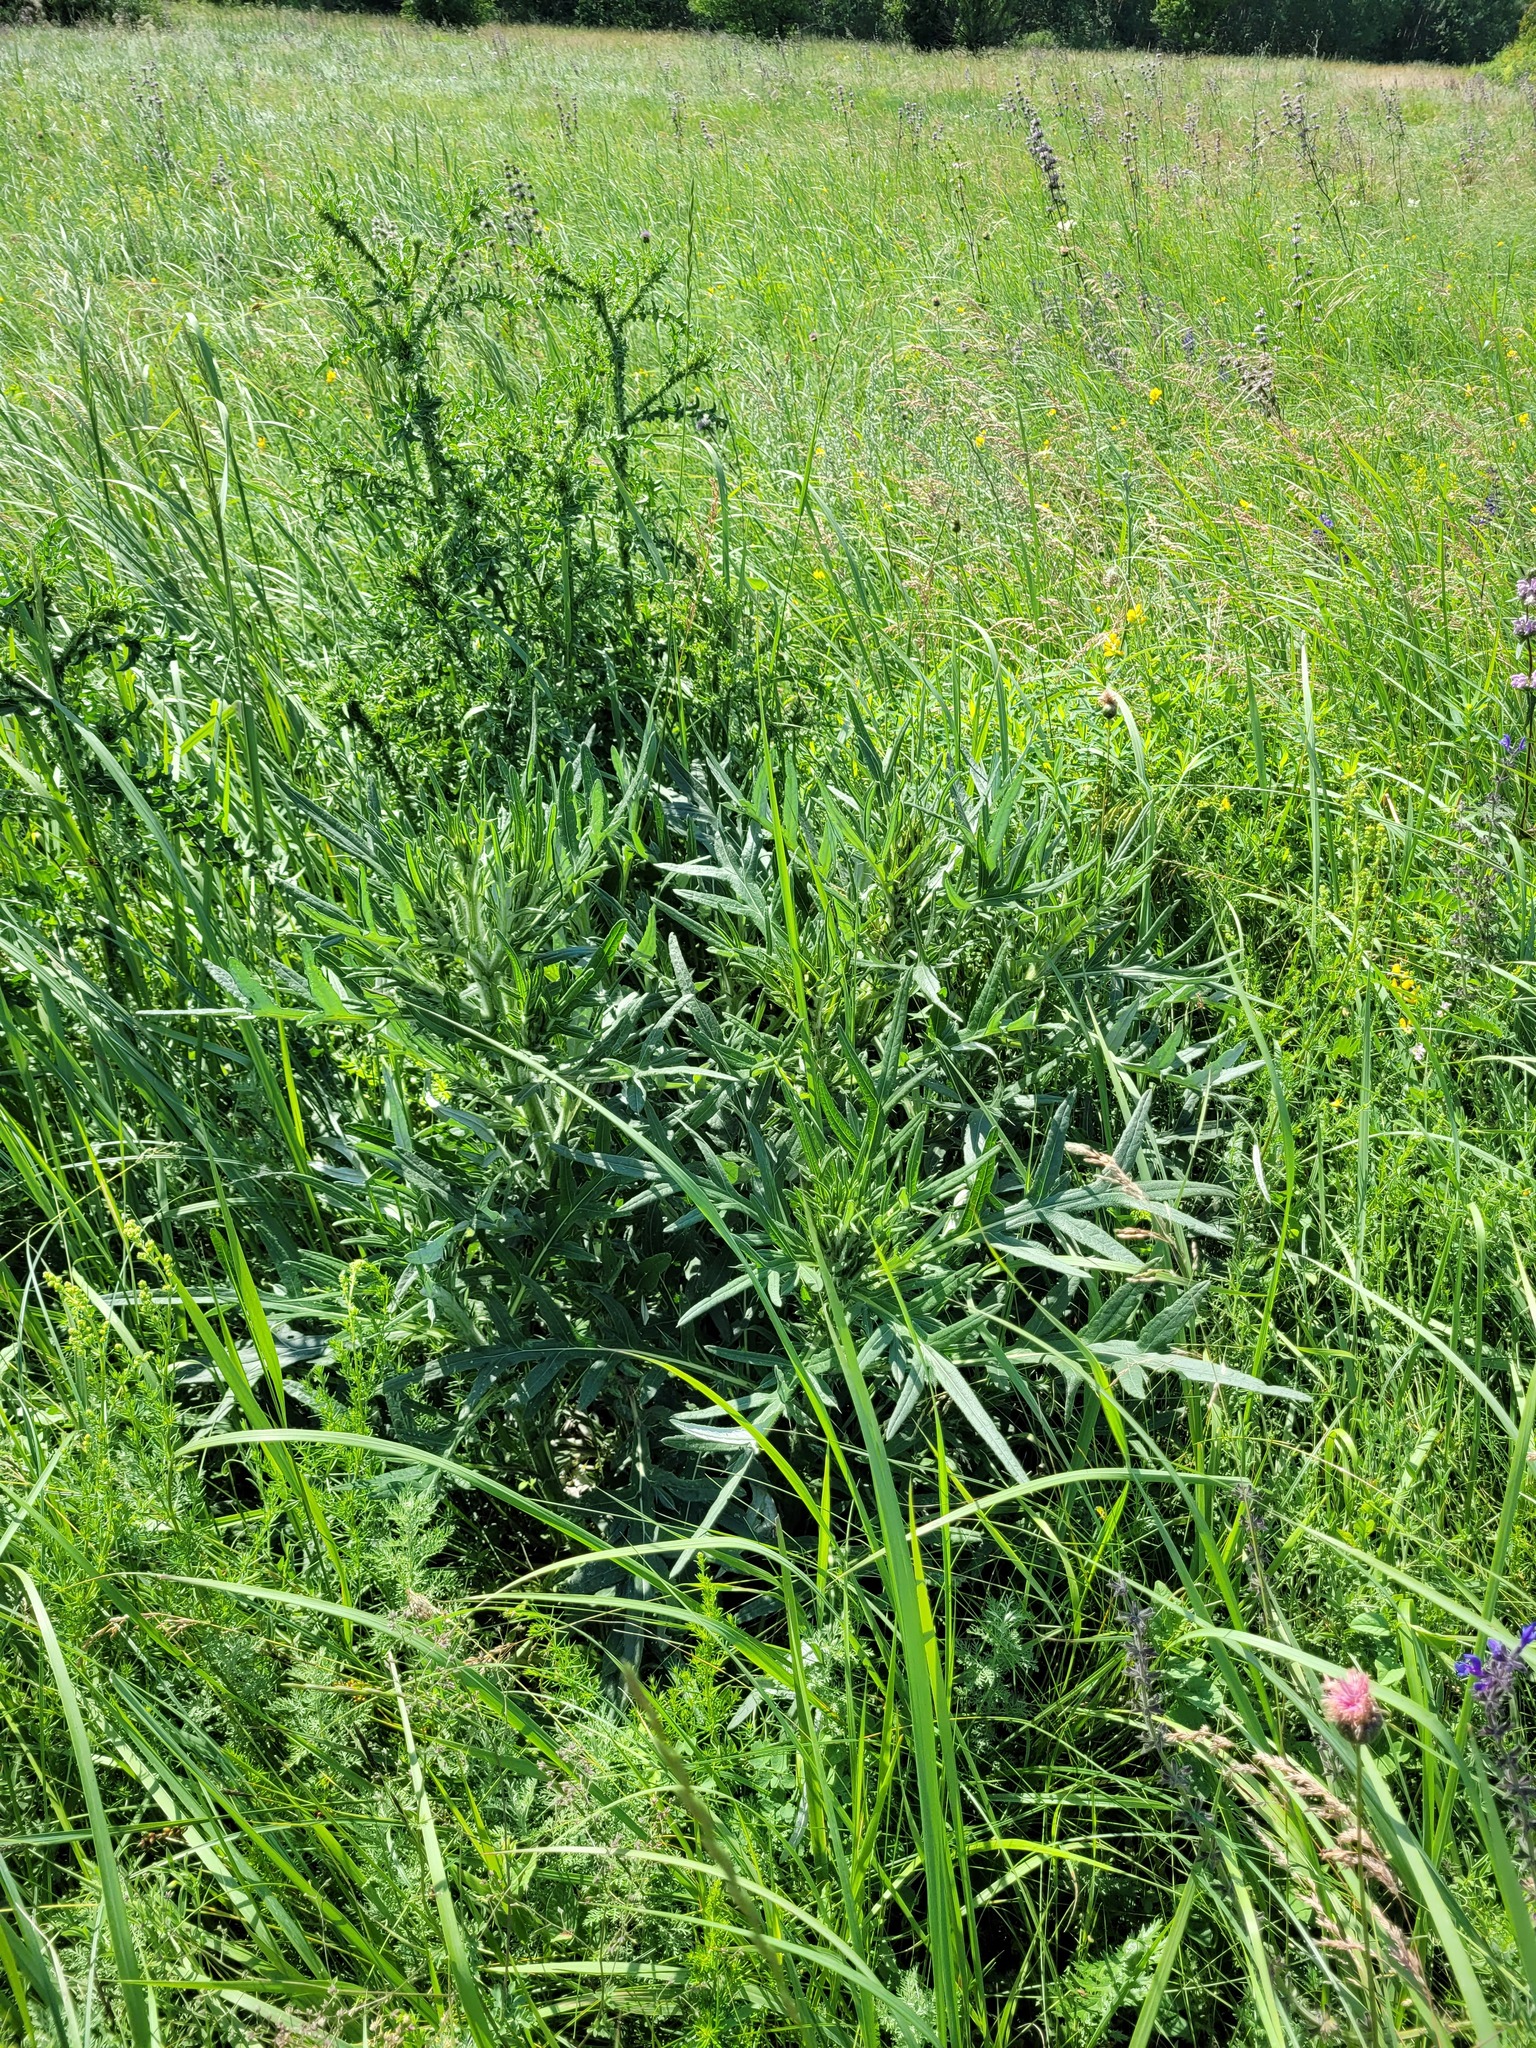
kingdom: Plantae
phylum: Tracheophyta
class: Magnoliopsida
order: Asterales
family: Asteraceae
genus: Cirsium
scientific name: Cirsium serrulatum
